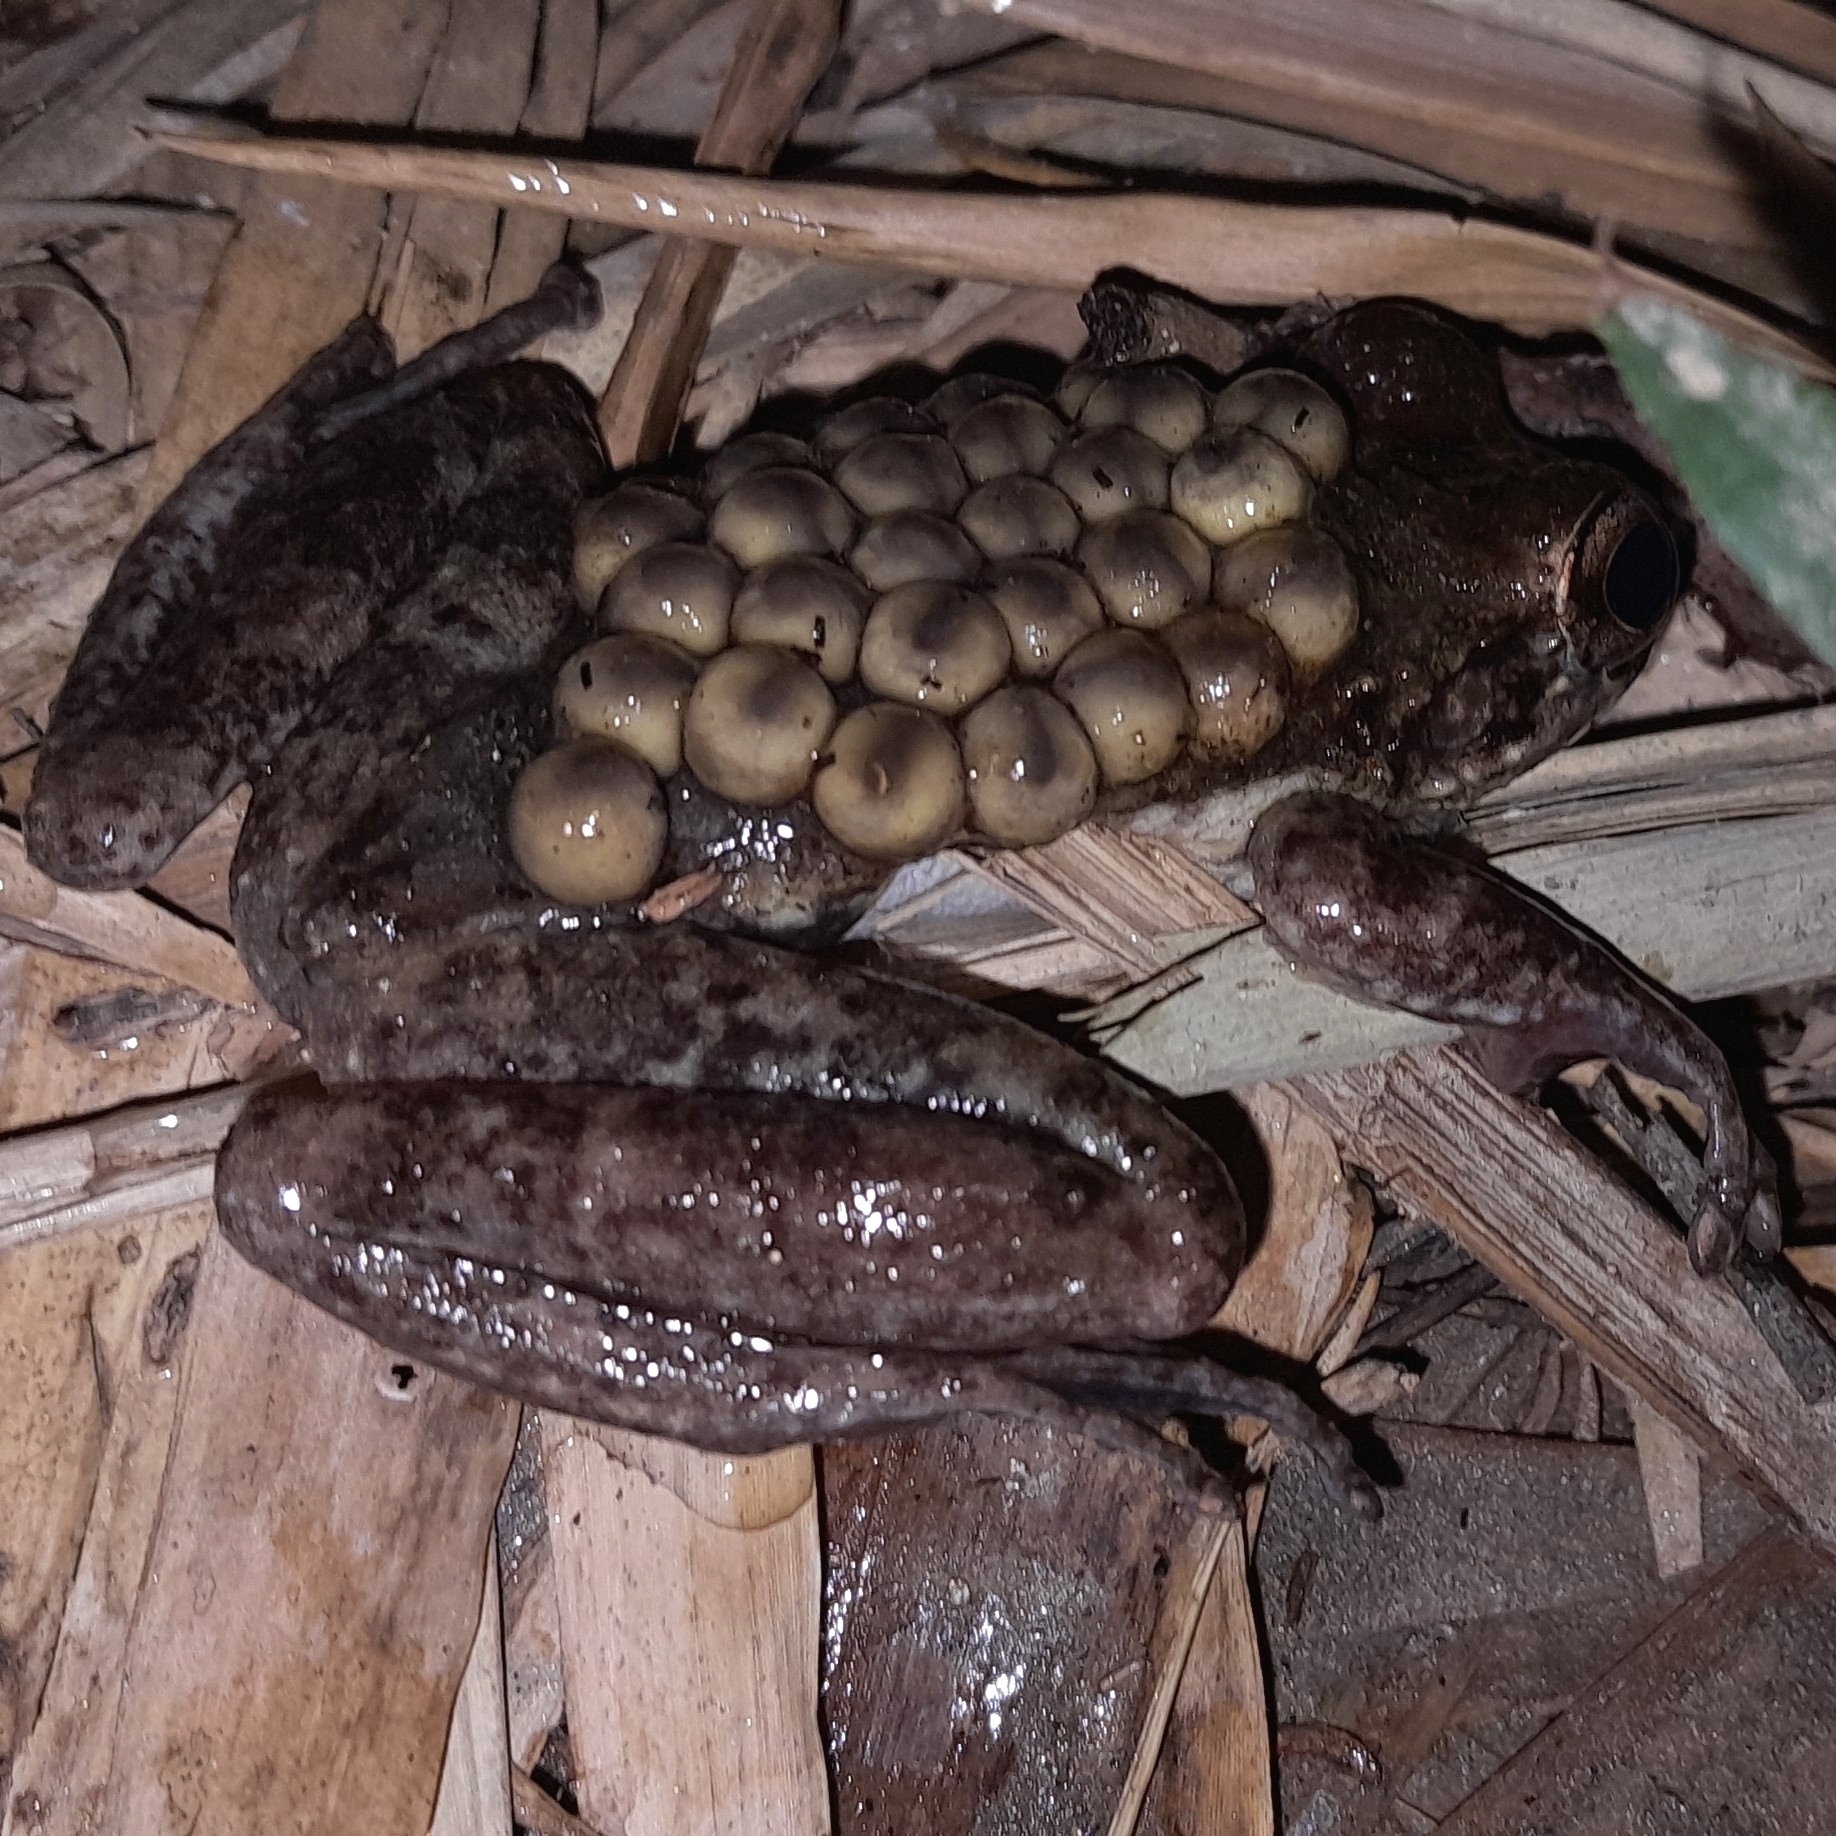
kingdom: Animalia
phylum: Chordata
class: Amphibia
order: Anura
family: Hemiphractidae
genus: Cryptobatrachus
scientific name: Cryptobatrachus boulengeri
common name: Boulenger's backpack frog
